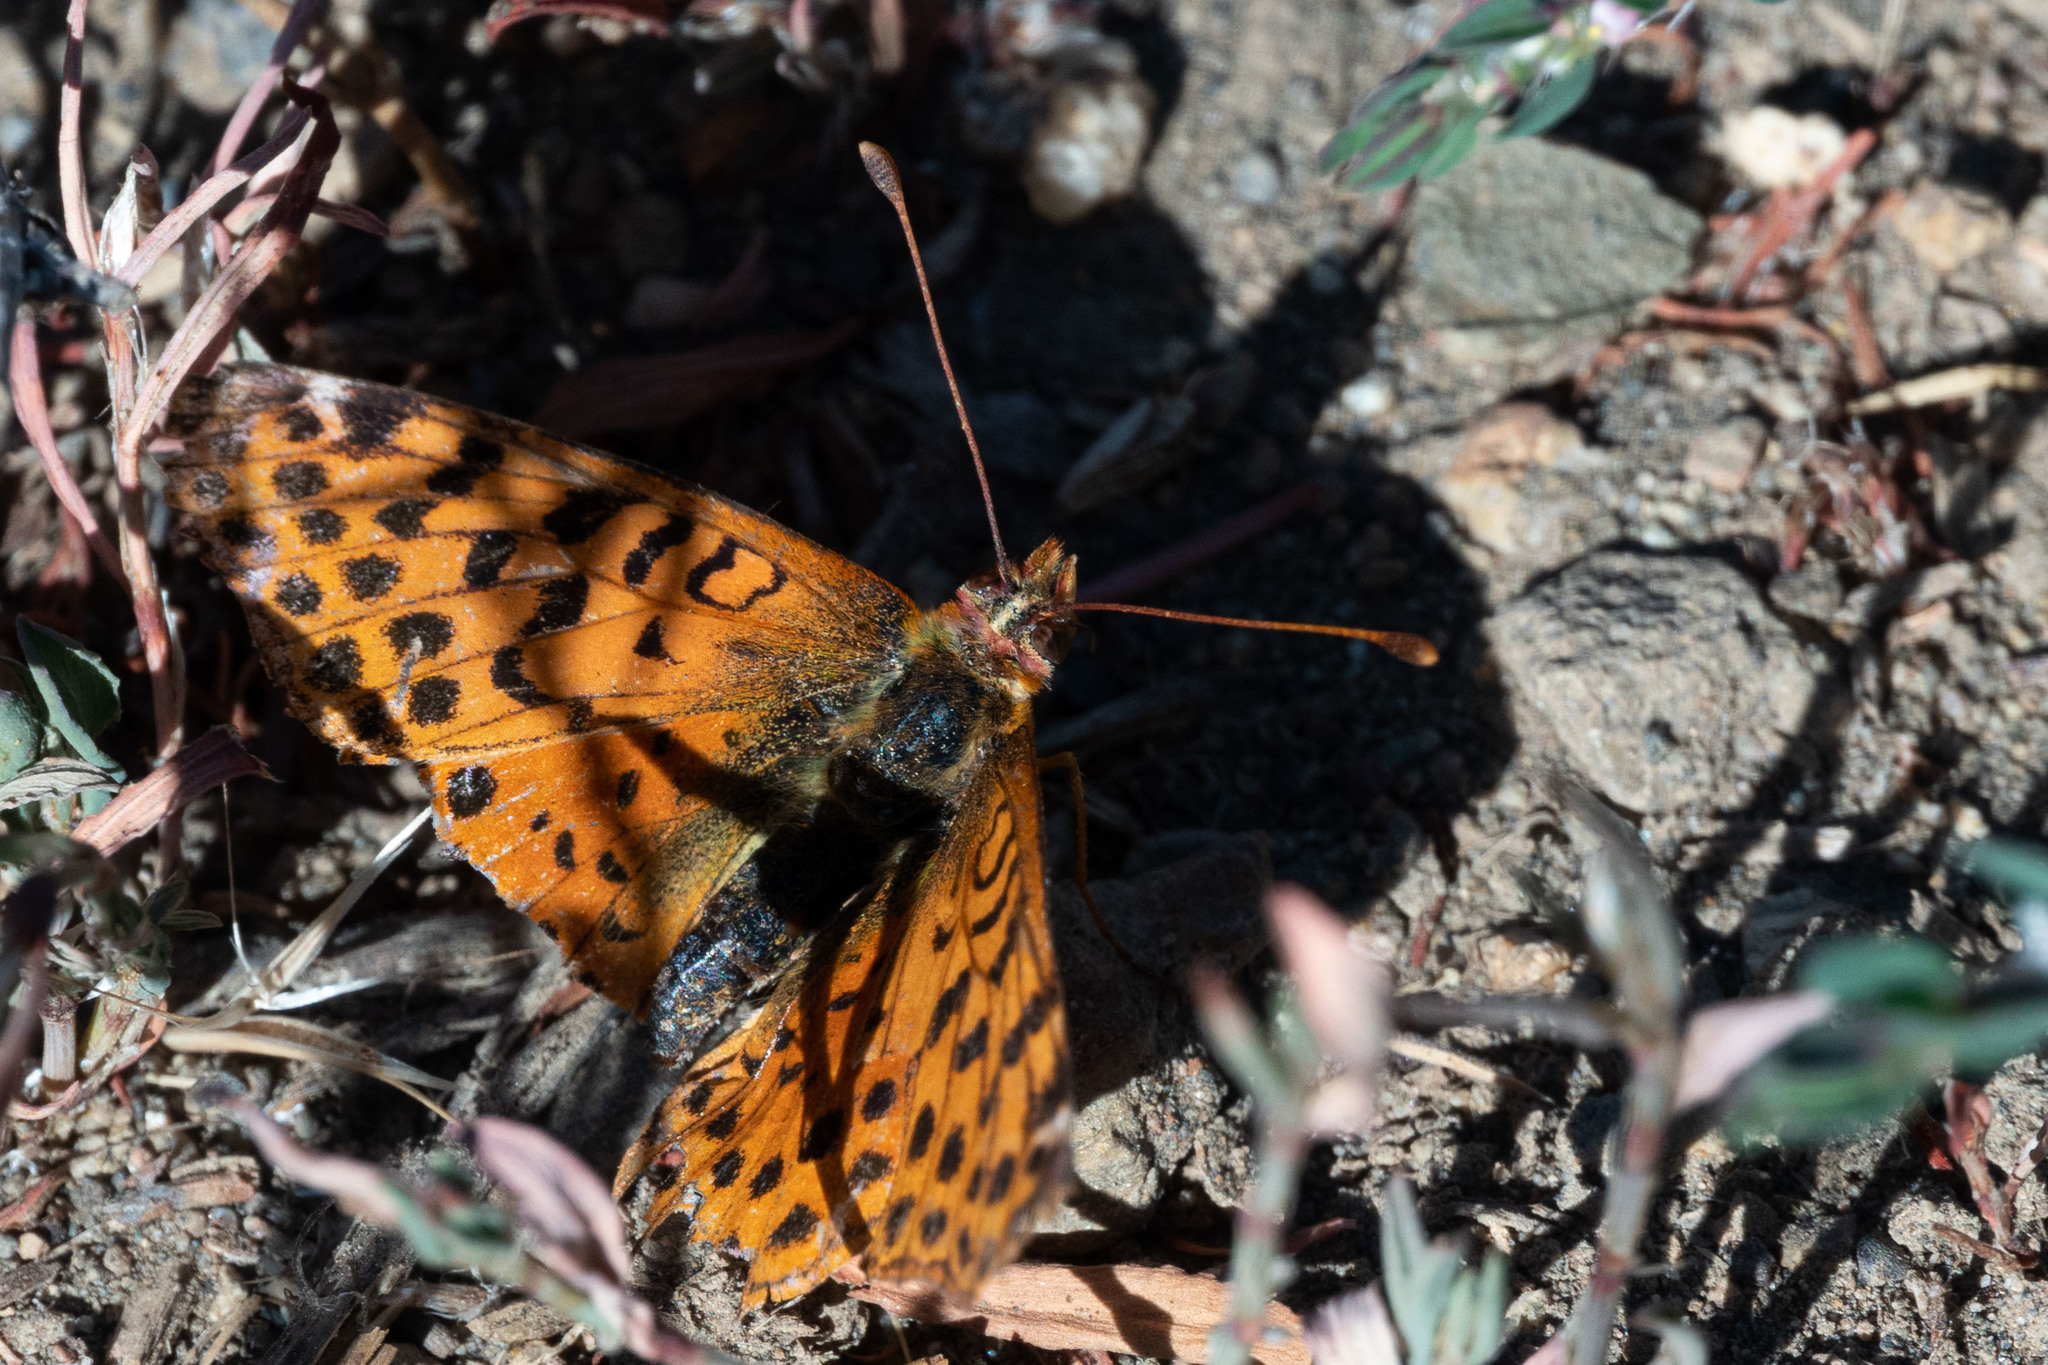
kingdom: Animalia
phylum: Arthropoda
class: Insecta
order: Lepidoptera
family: Nymphalidae
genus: Issoria
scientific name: Issoria Yramea cytheris
